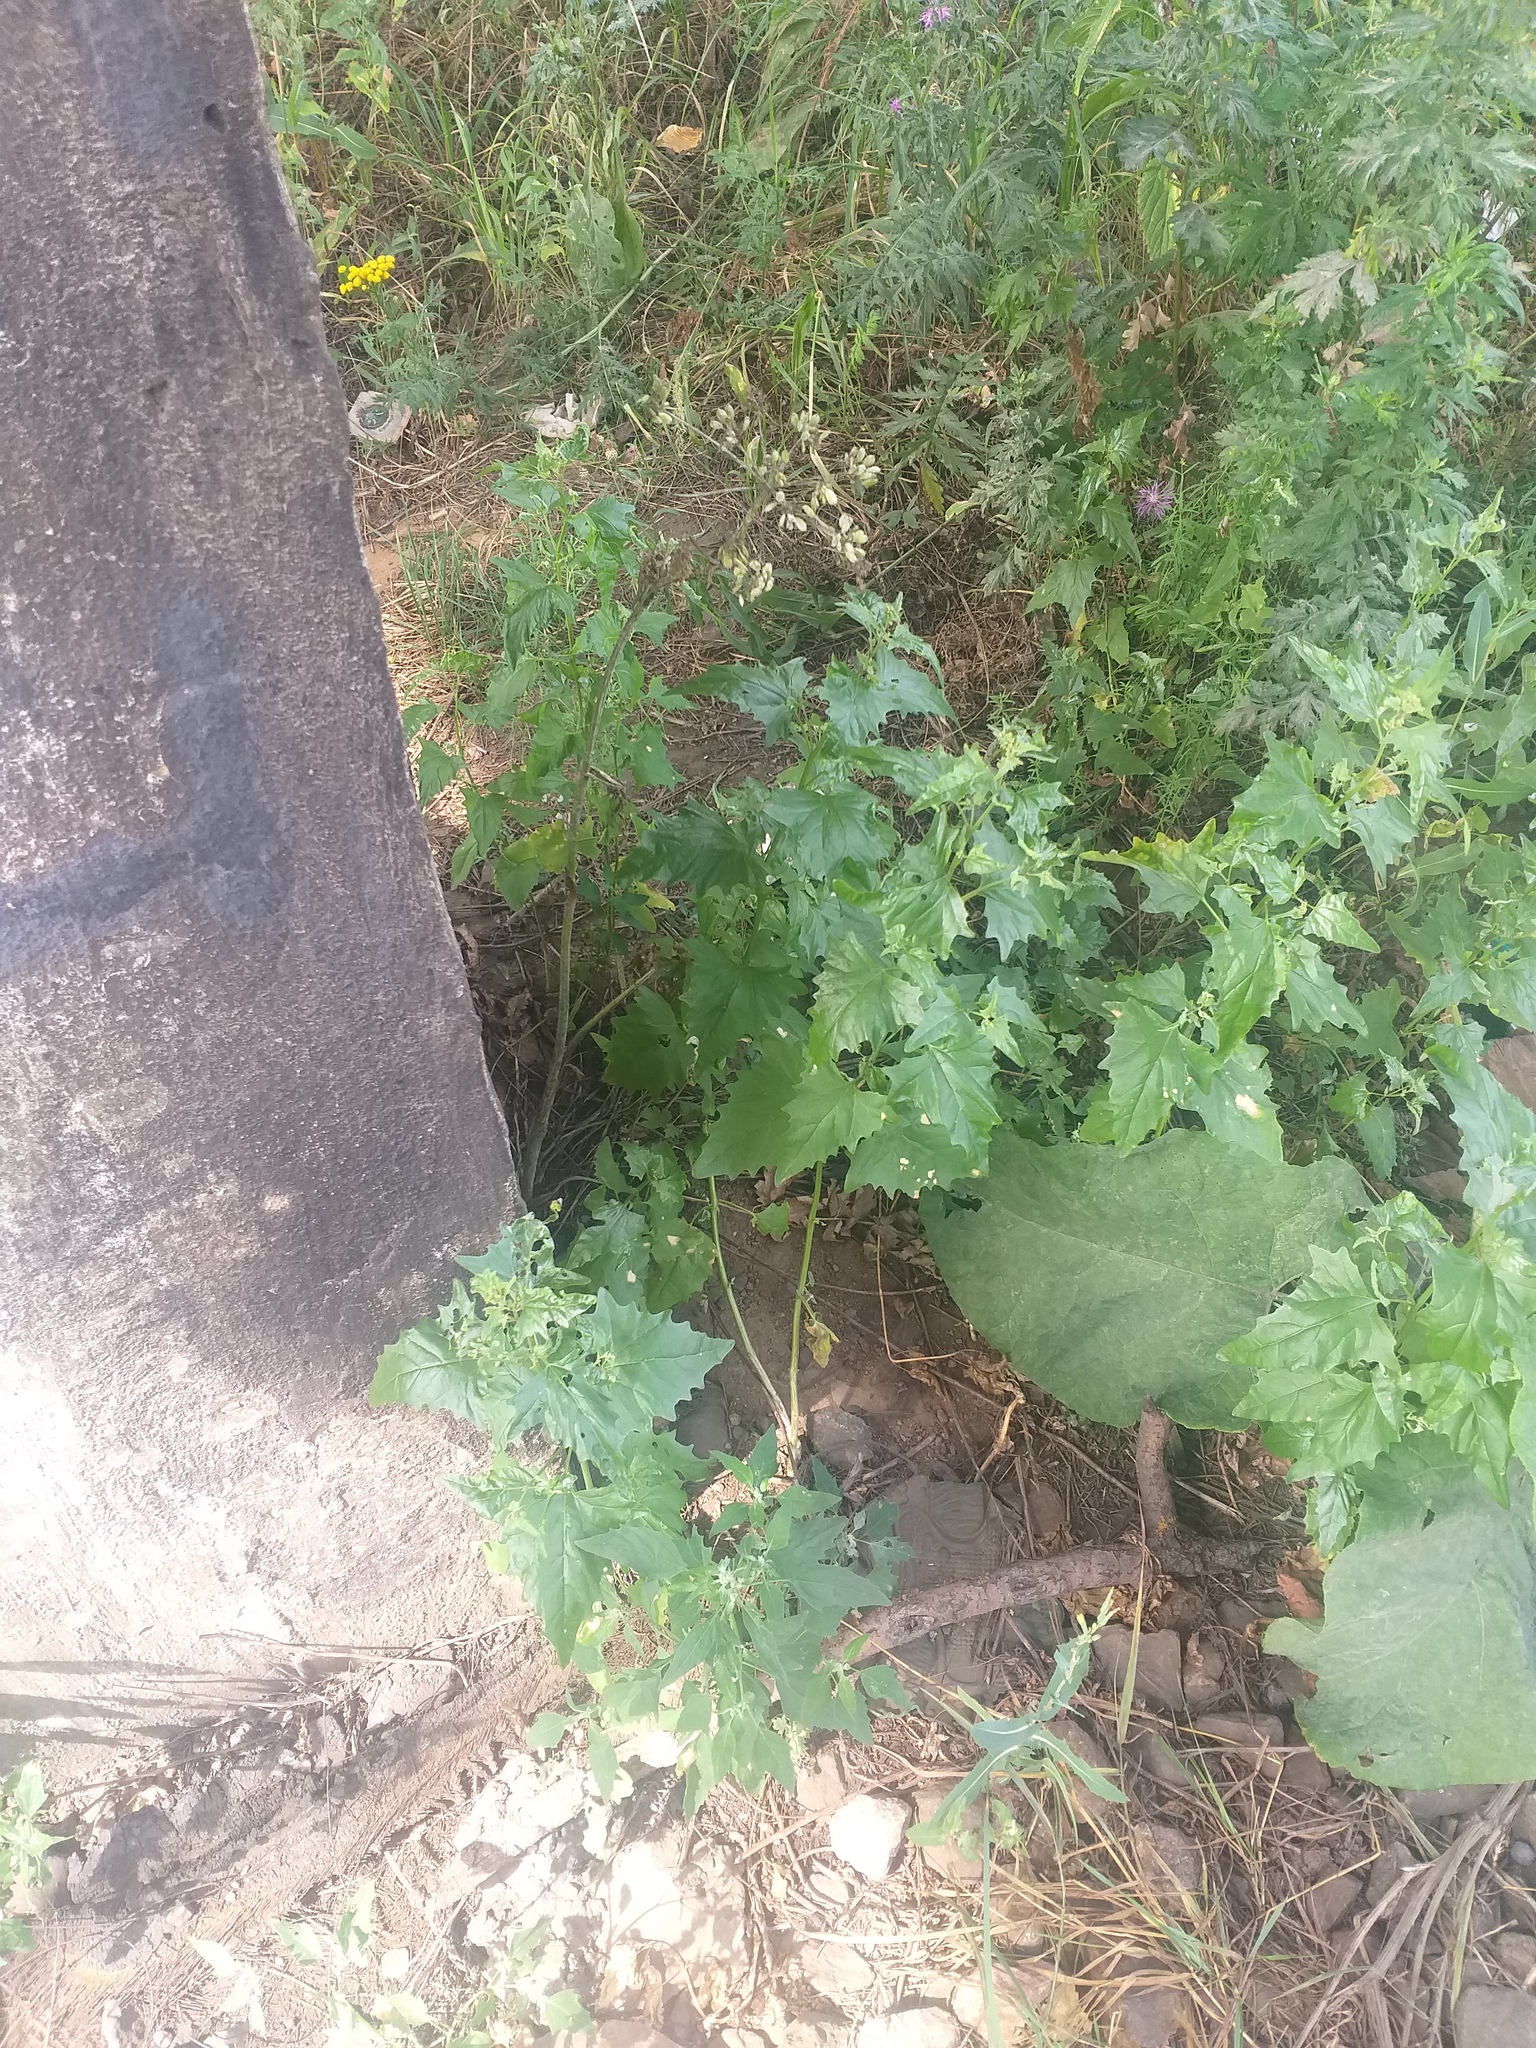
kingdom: Plantae
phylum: Tracheophyta
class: Magnoliopsida
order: Caryophyllales
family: Amaranthaceae
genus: Atriplex
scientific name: Atriplex sagittata
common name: Purple orache
